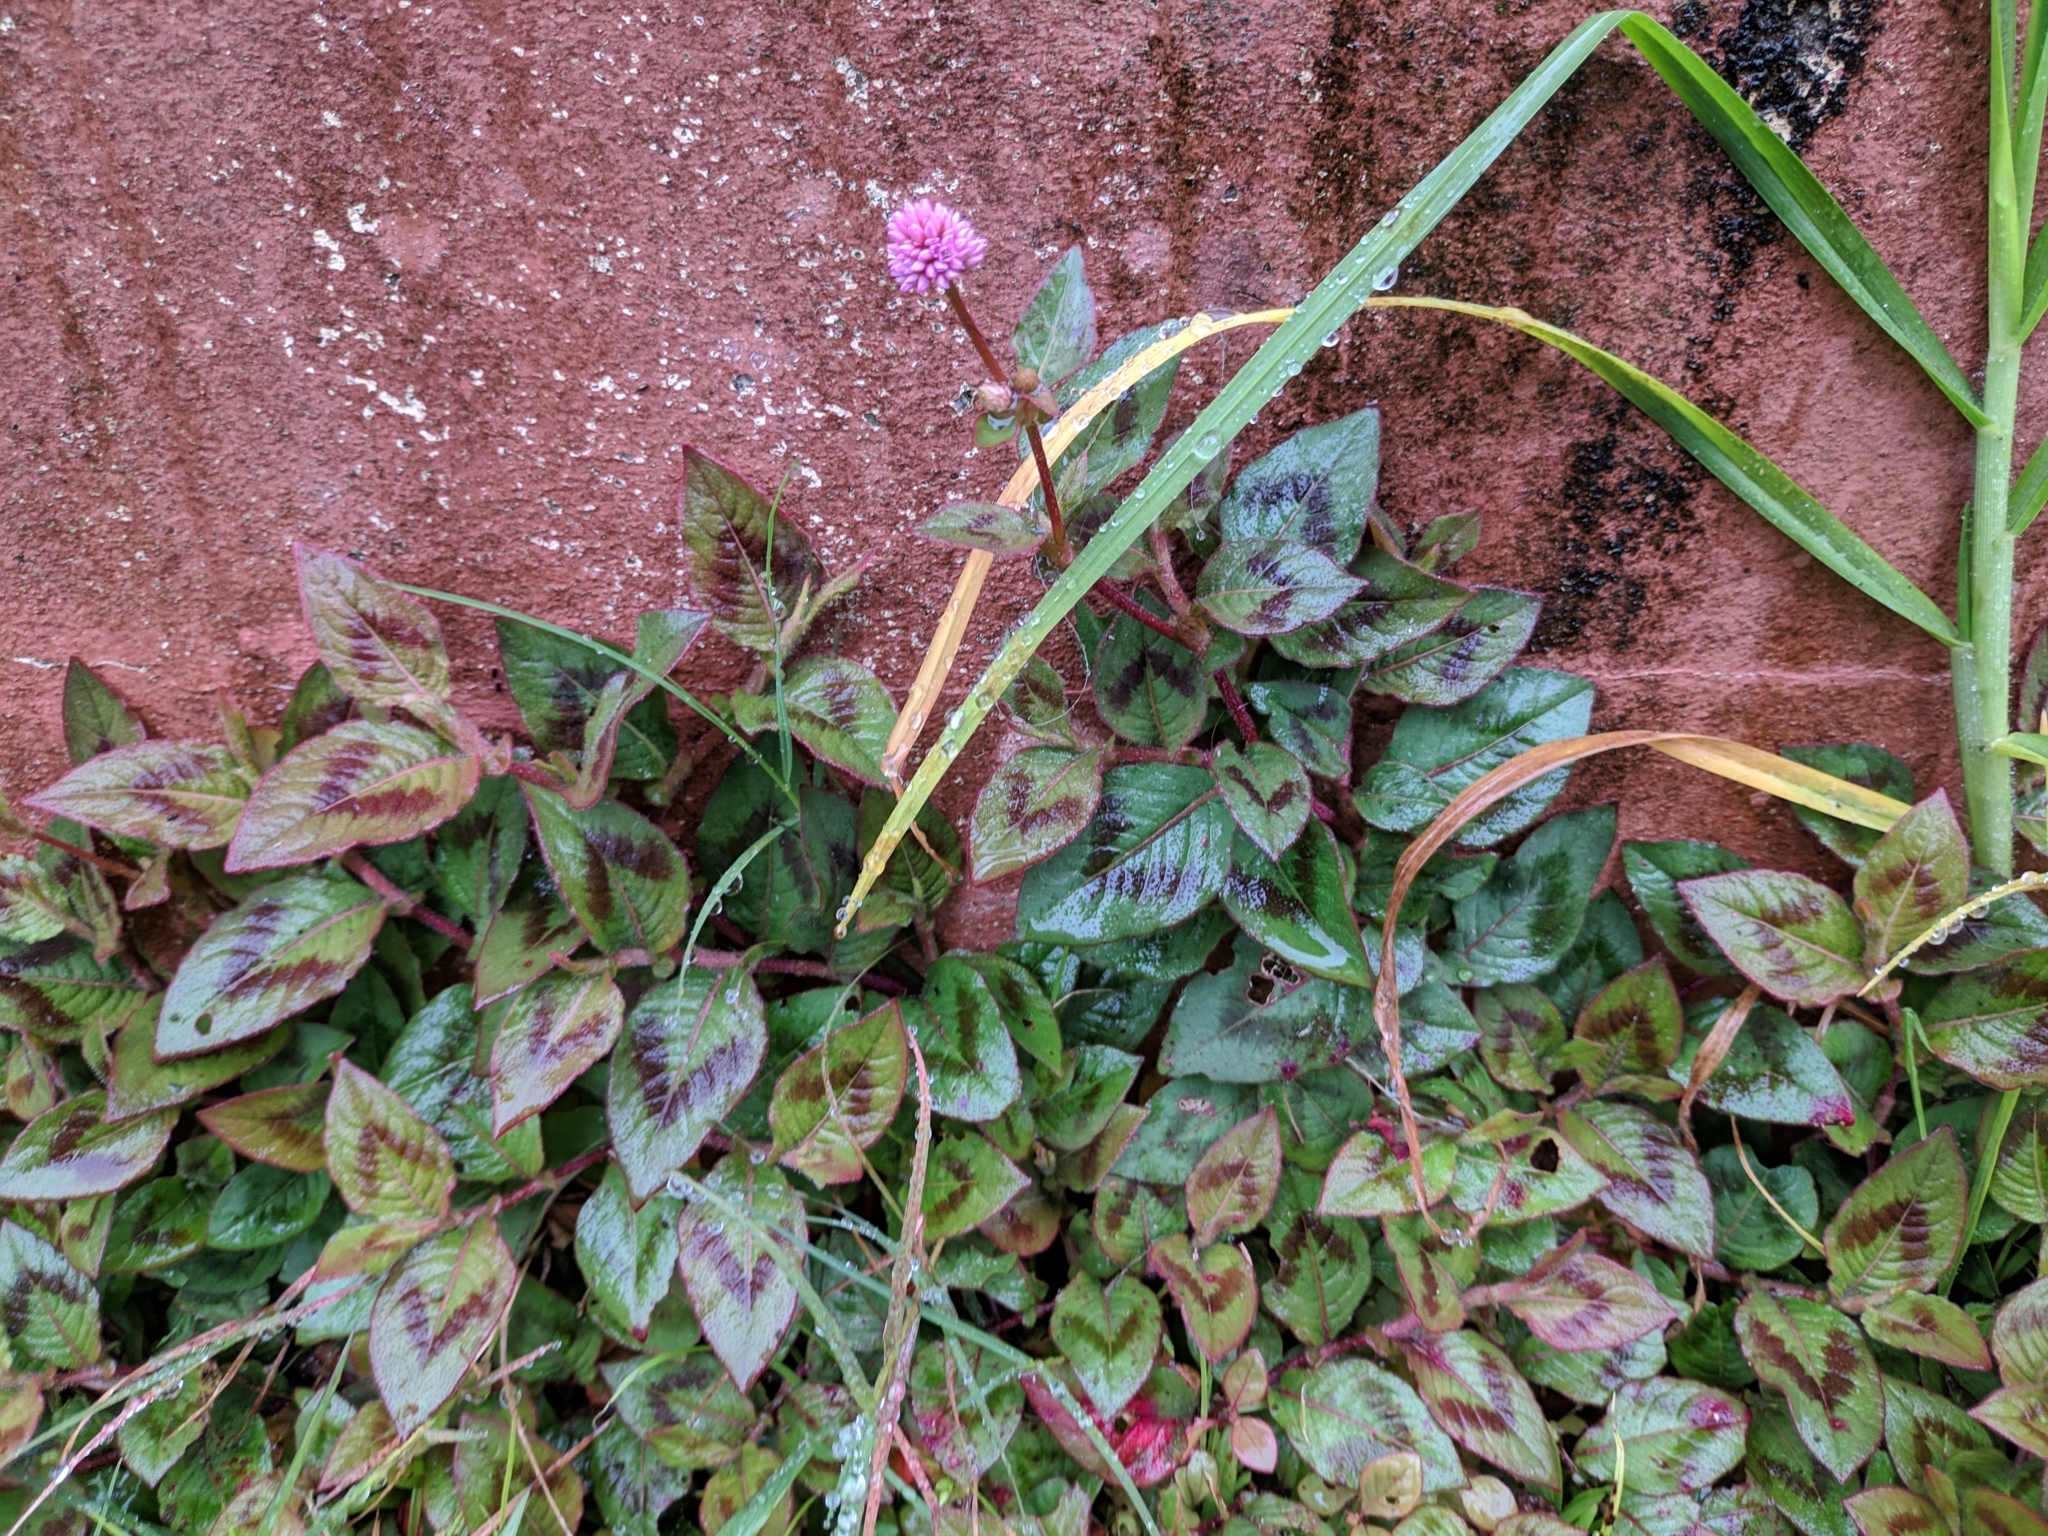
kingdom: Plantae
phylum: Tracheophyta
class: Magnoliopsida
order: Caryophyllales
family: Polygonaceae
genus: Persicaria
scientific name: Persicaria capitata
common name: Pinkhead smartweed
